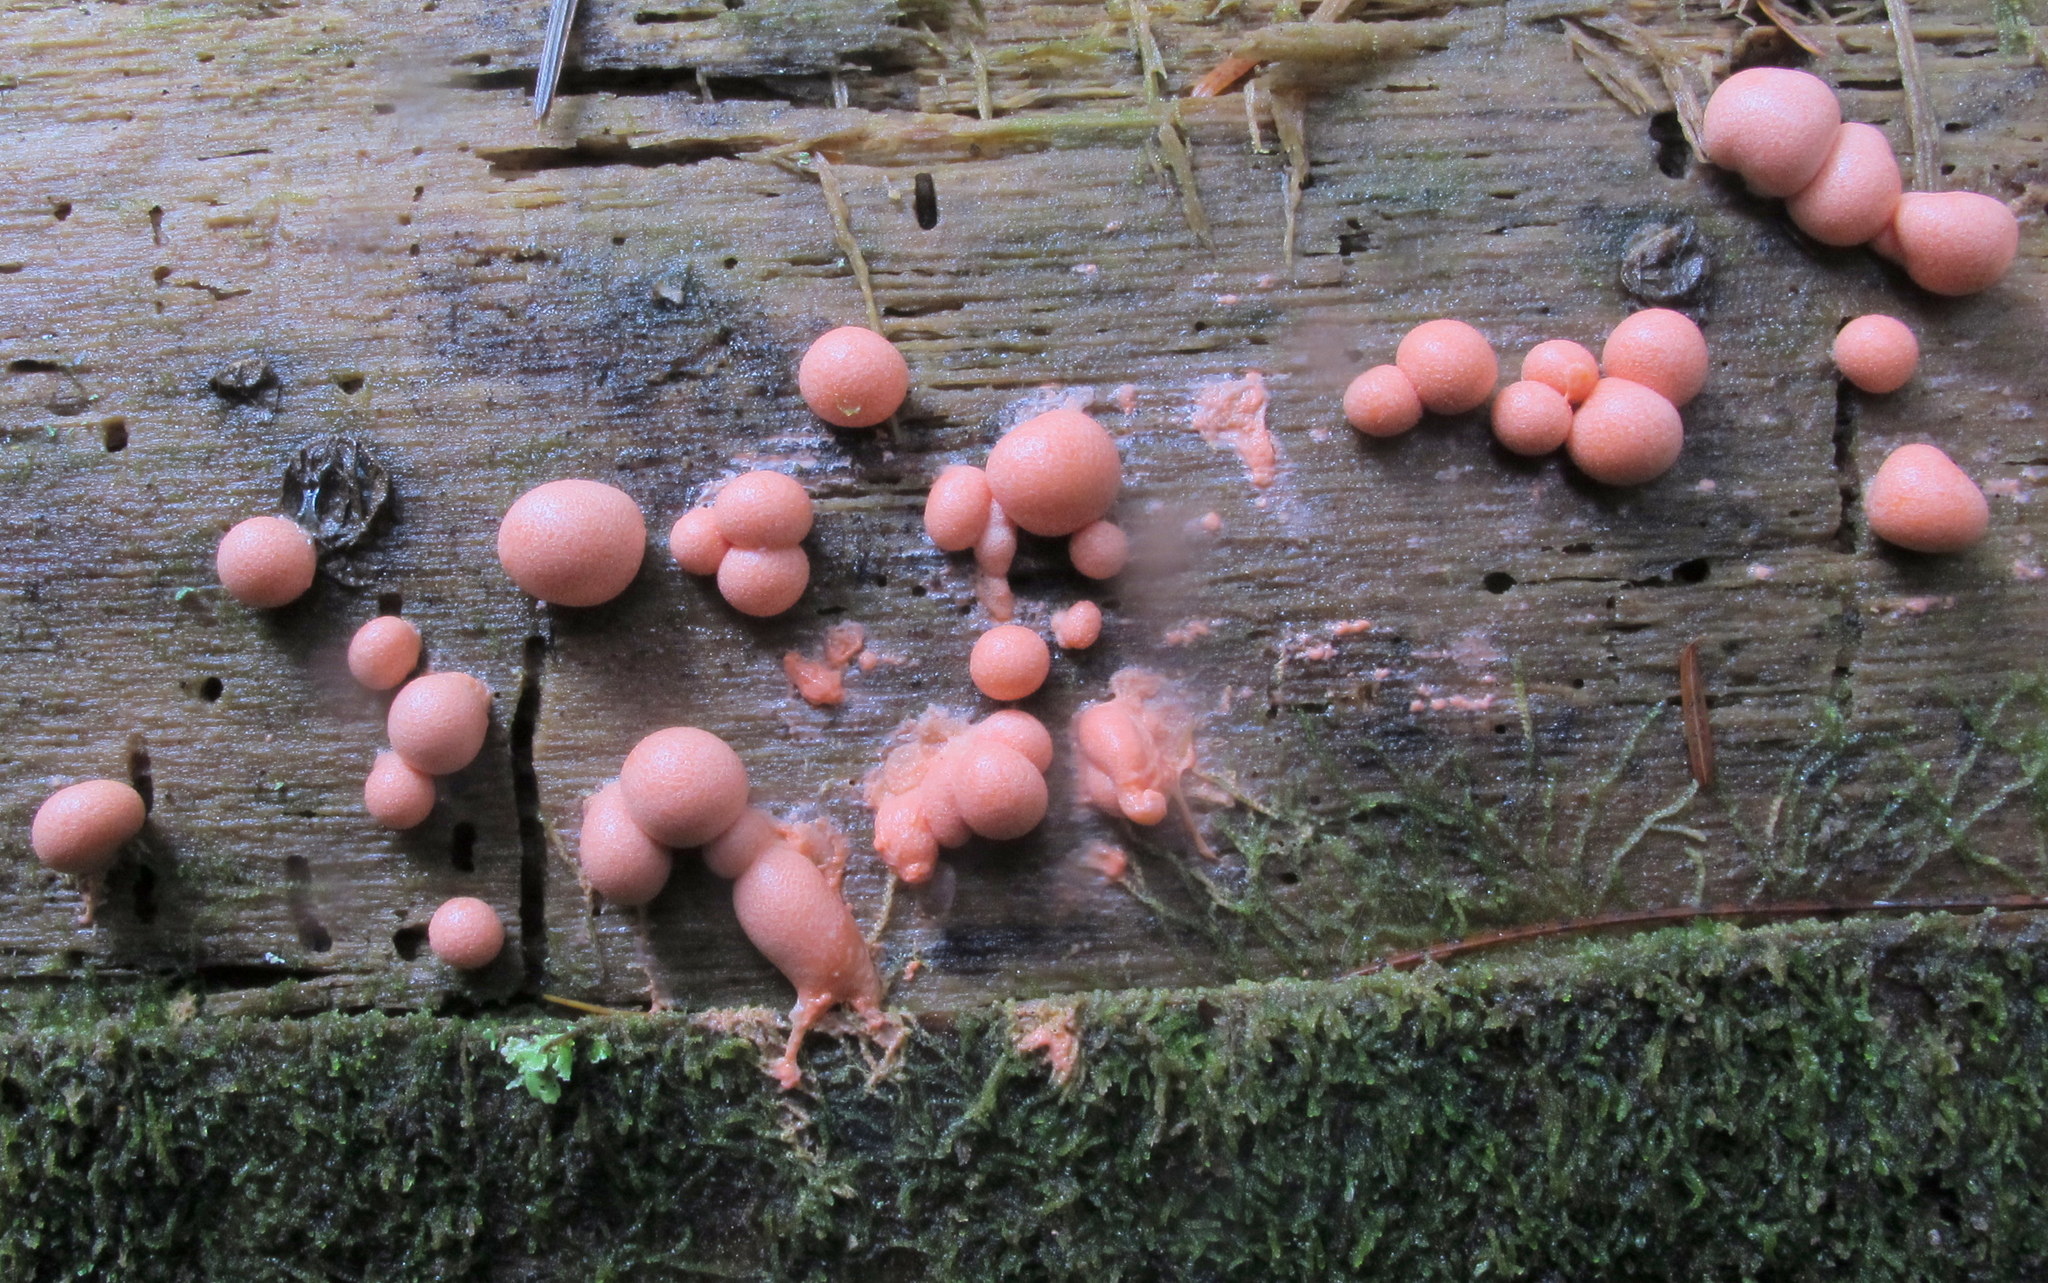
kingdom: Protozoa
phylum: Mycetozoa
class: Myxomycetes
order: Cribrariales
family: Tubiferaceae
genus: Lycogala
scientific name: Lycogala epidendrum
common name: Wolf's milk
